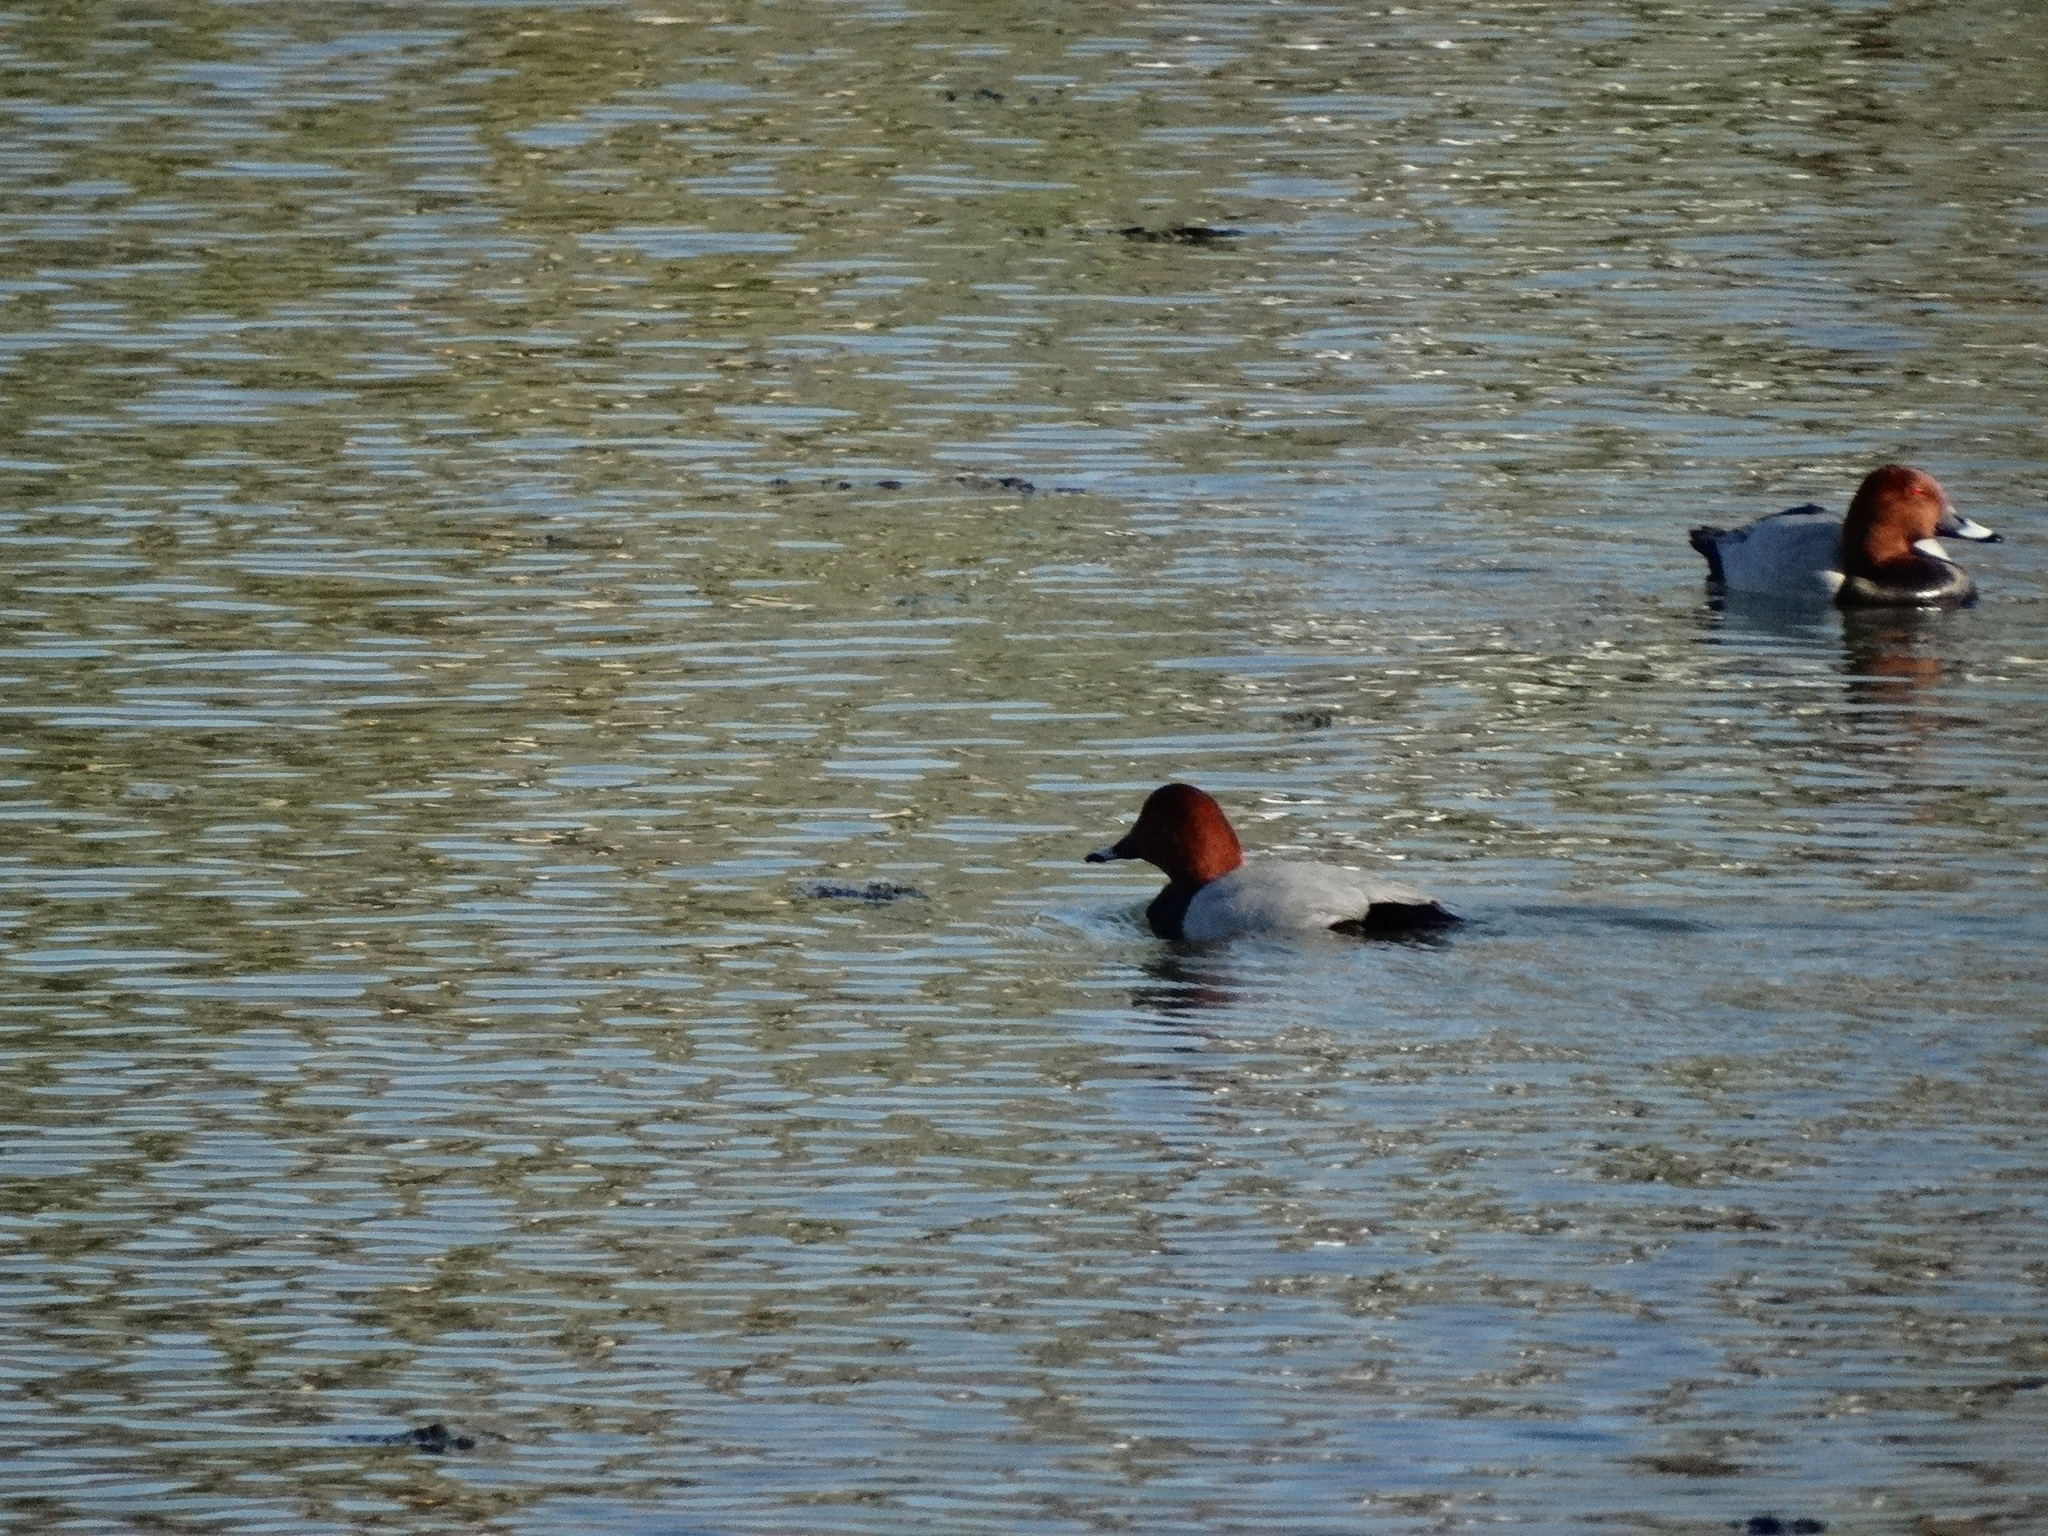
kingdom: Animalia
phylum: Chordata
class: Aves
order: Anseriformes
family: Anatidae
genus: Aythya
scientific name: Aythya ferina
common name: Common pochard
